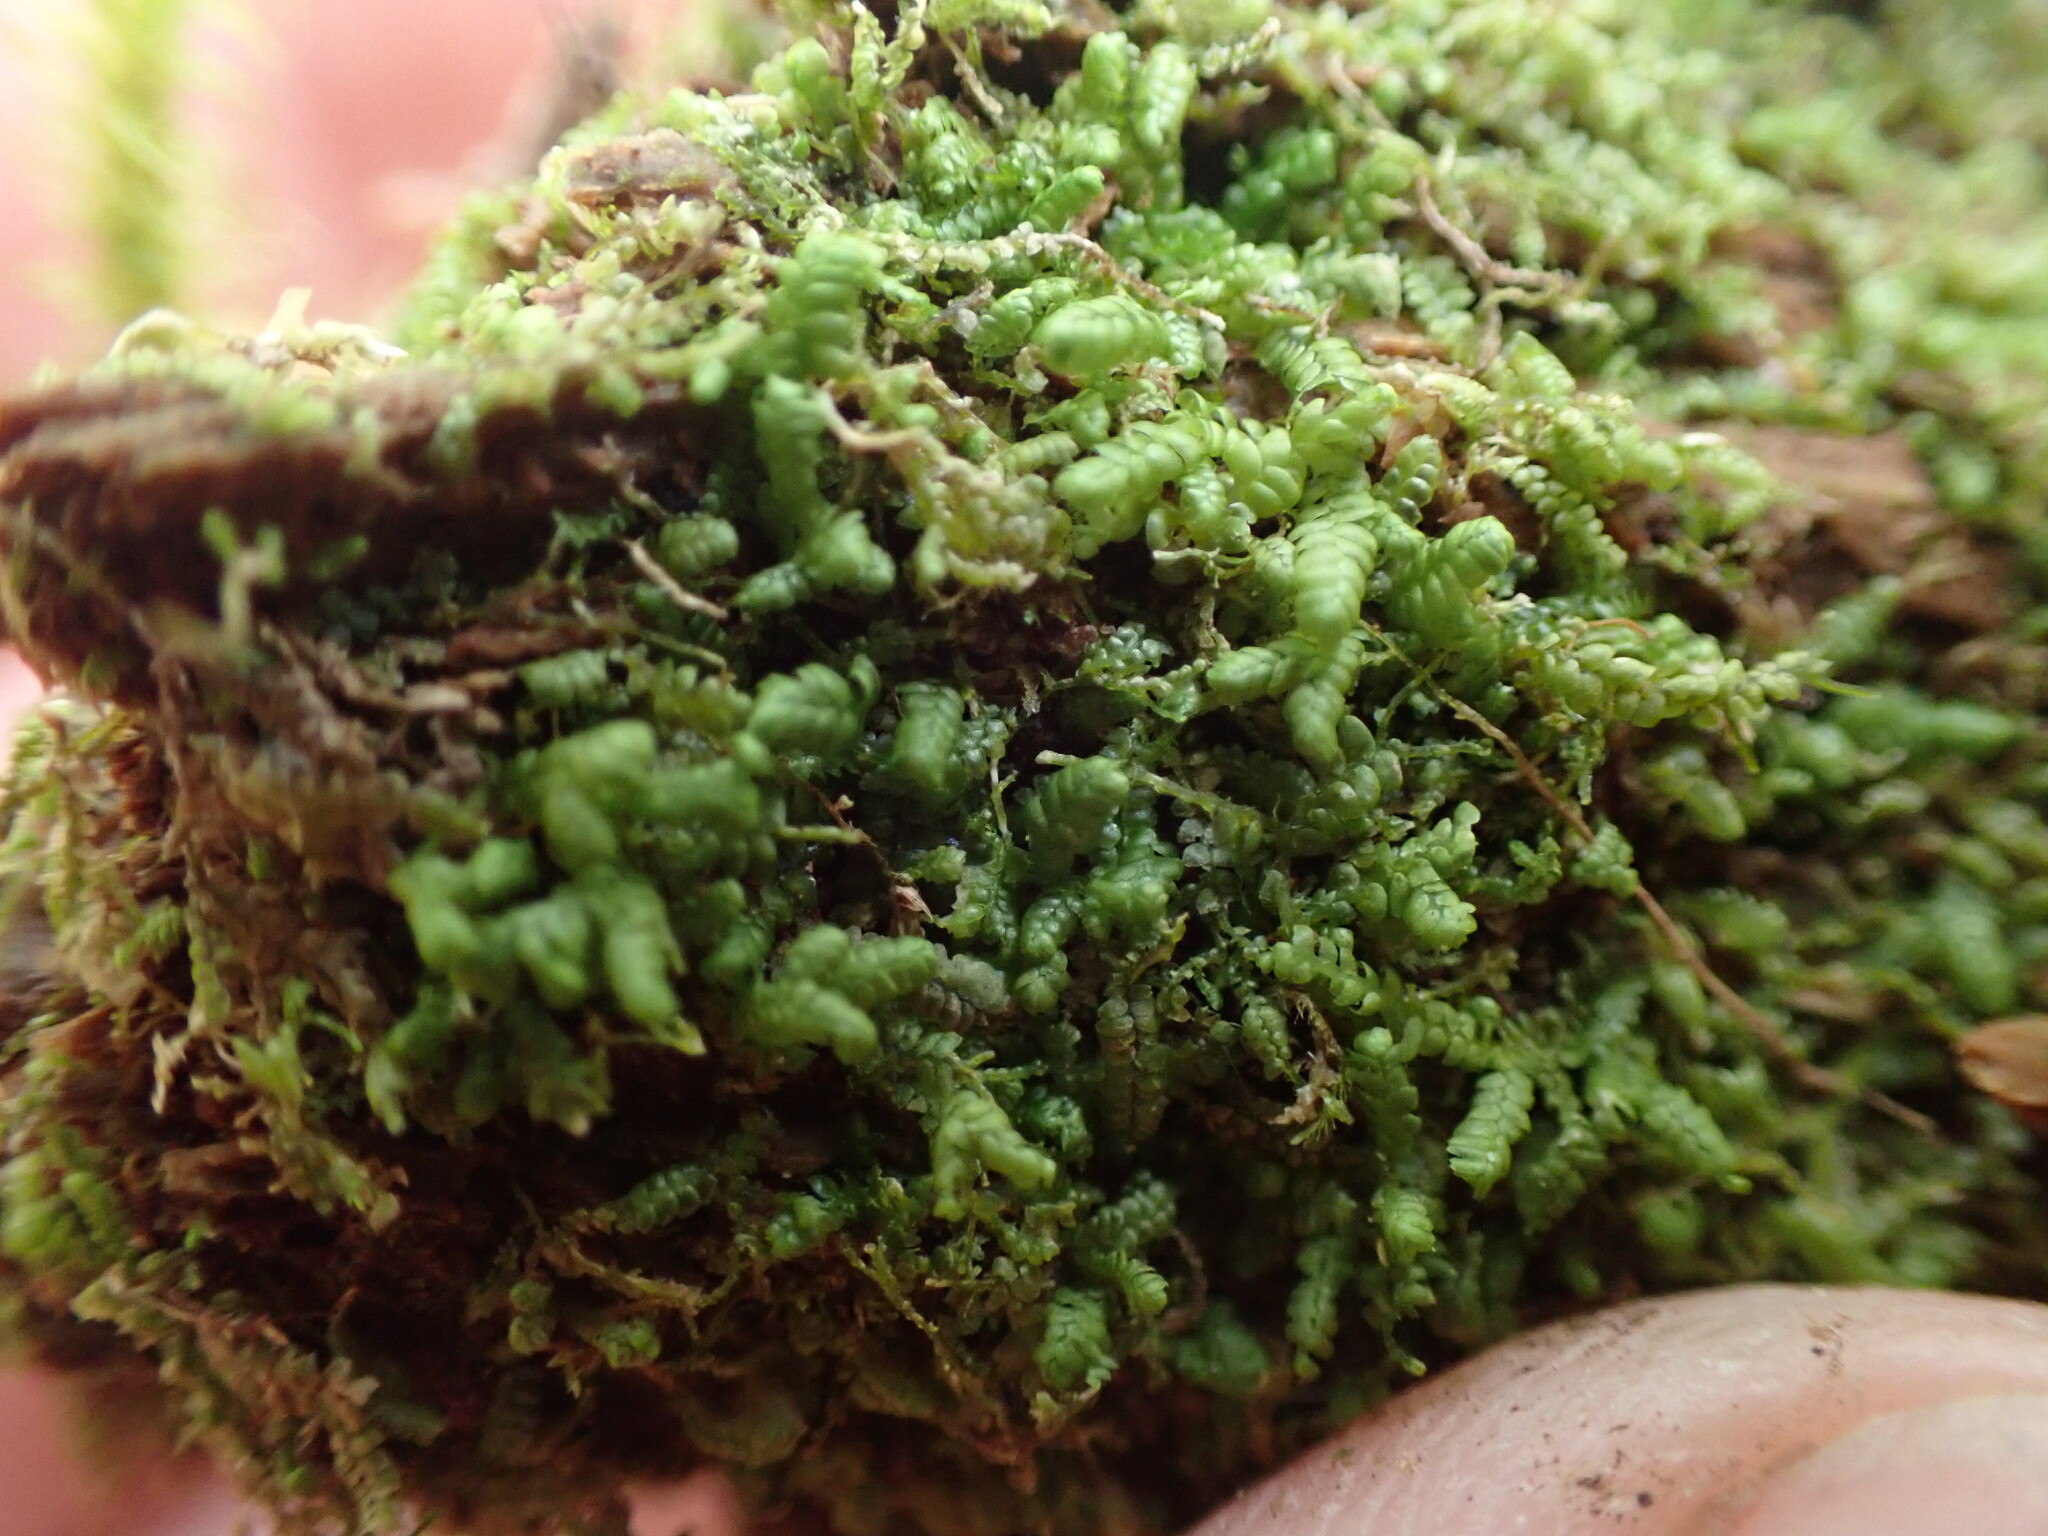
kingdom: Plantae
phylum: Marchantiophyta
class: Jungermanniopsida
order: Jungermanniales
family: Lepidoziaceae
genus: Bazzania
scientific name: Bazzania denudata
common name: Naked whipwort
